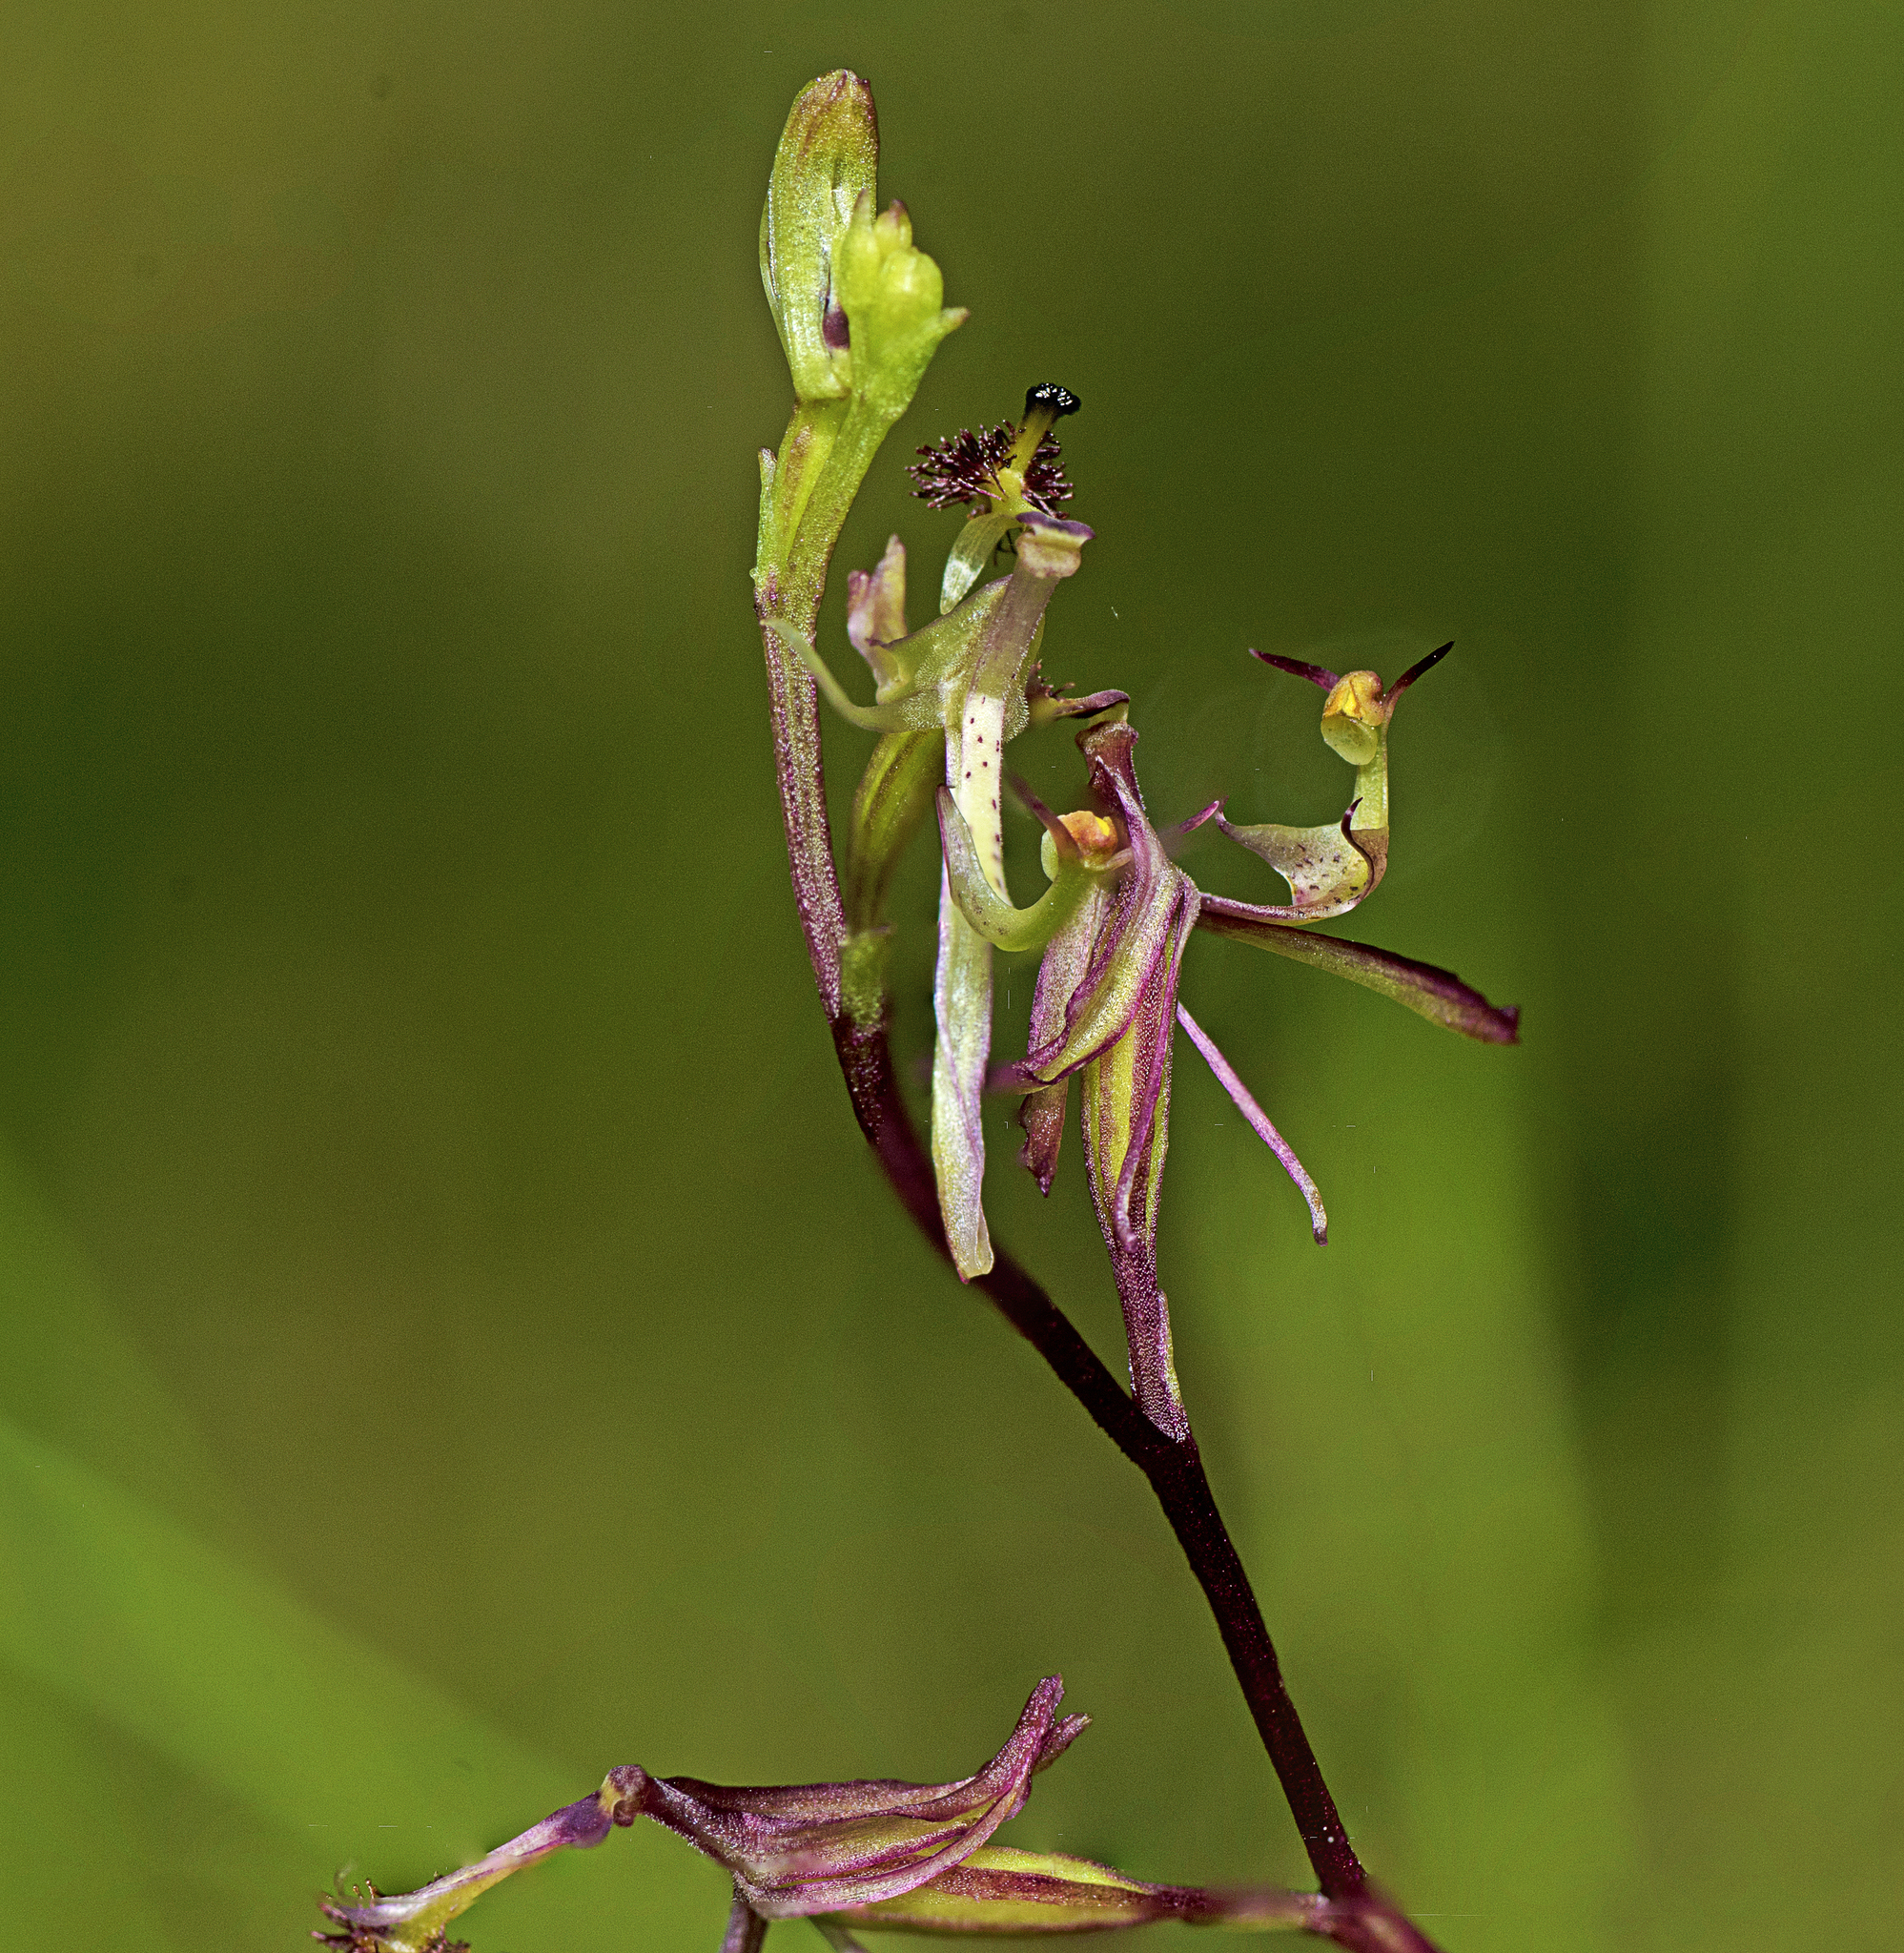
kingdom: Plantae
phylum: Tracheophyta
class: Liliopsida
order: Asparagales
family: Orchidaceae
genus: Arthrochilus
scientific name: Arthrochilus prolixus
